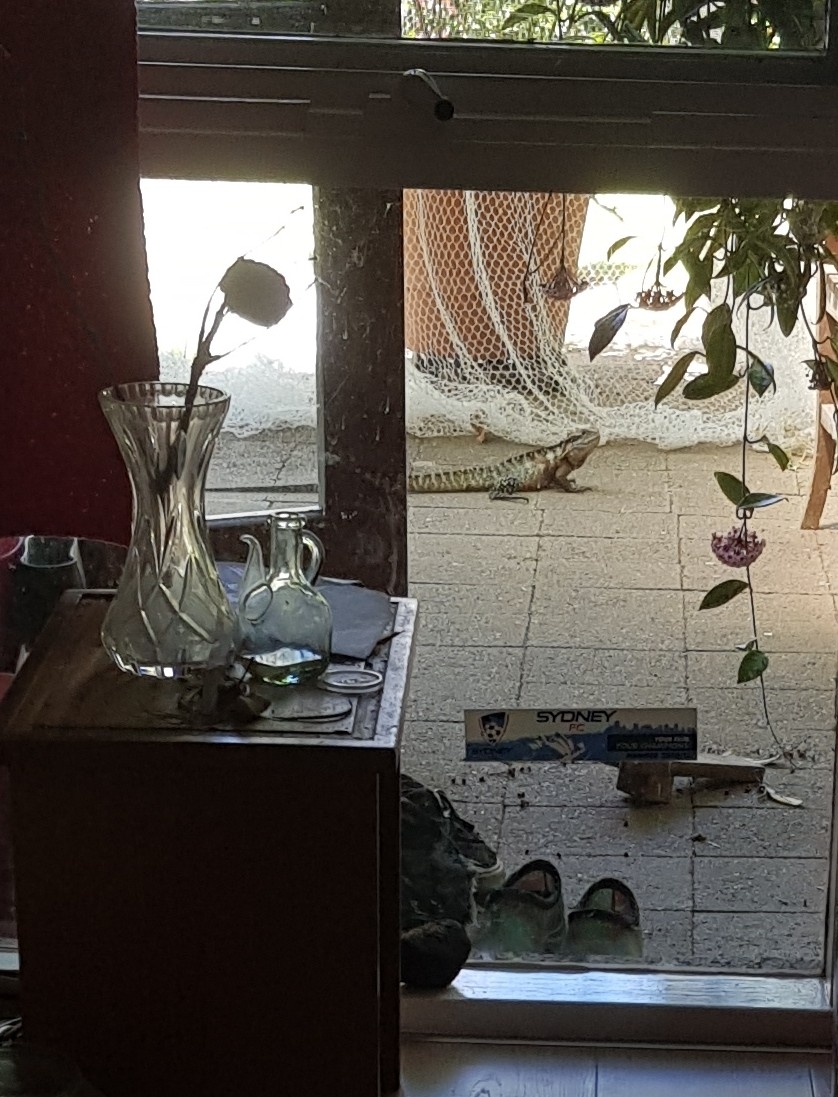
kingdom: Animalia
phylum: Chordata
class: Squamata
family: Agamidae
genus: Intellagama
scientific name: Intellagama lesueurii
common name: Eastern water dragon
